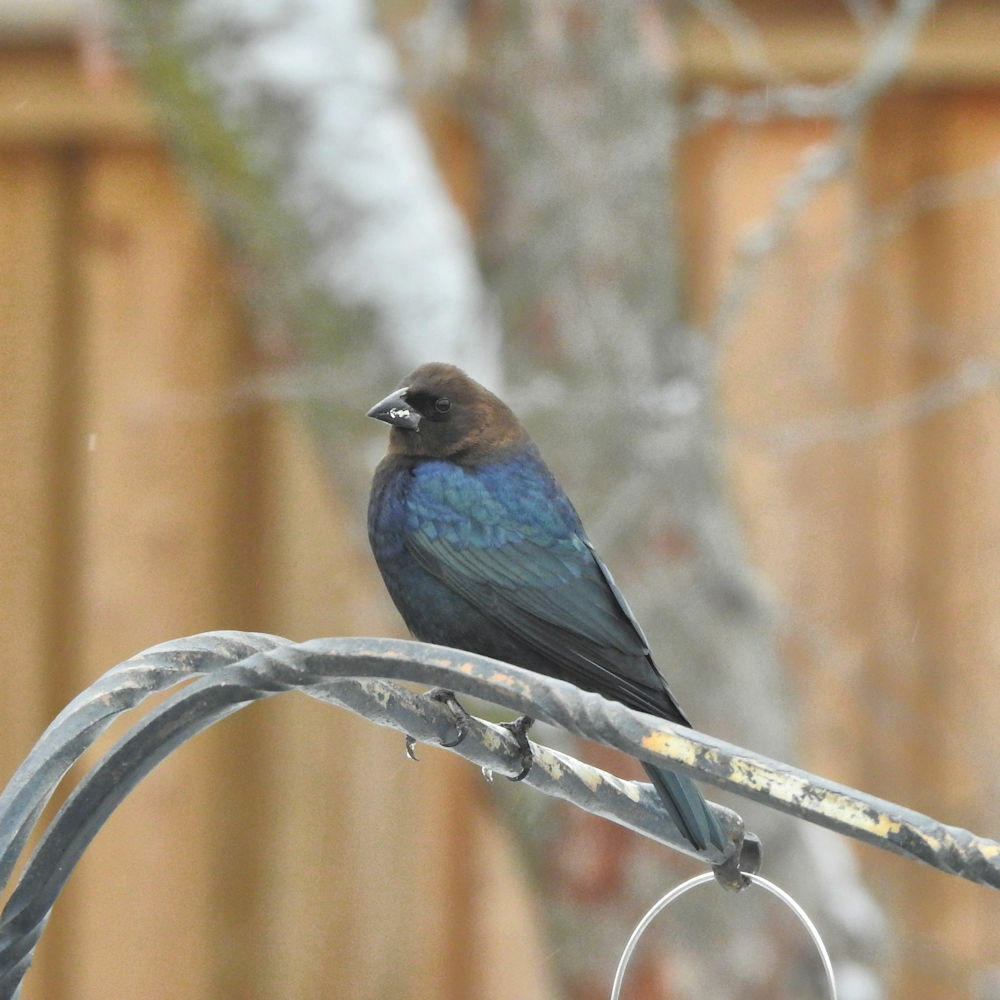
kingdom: Animalia
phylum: Chordata
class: Aves
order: Passeriformes
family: Icteridae
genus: Molothrus
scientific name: Molothrus ater
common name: Brown-headed cowbird
